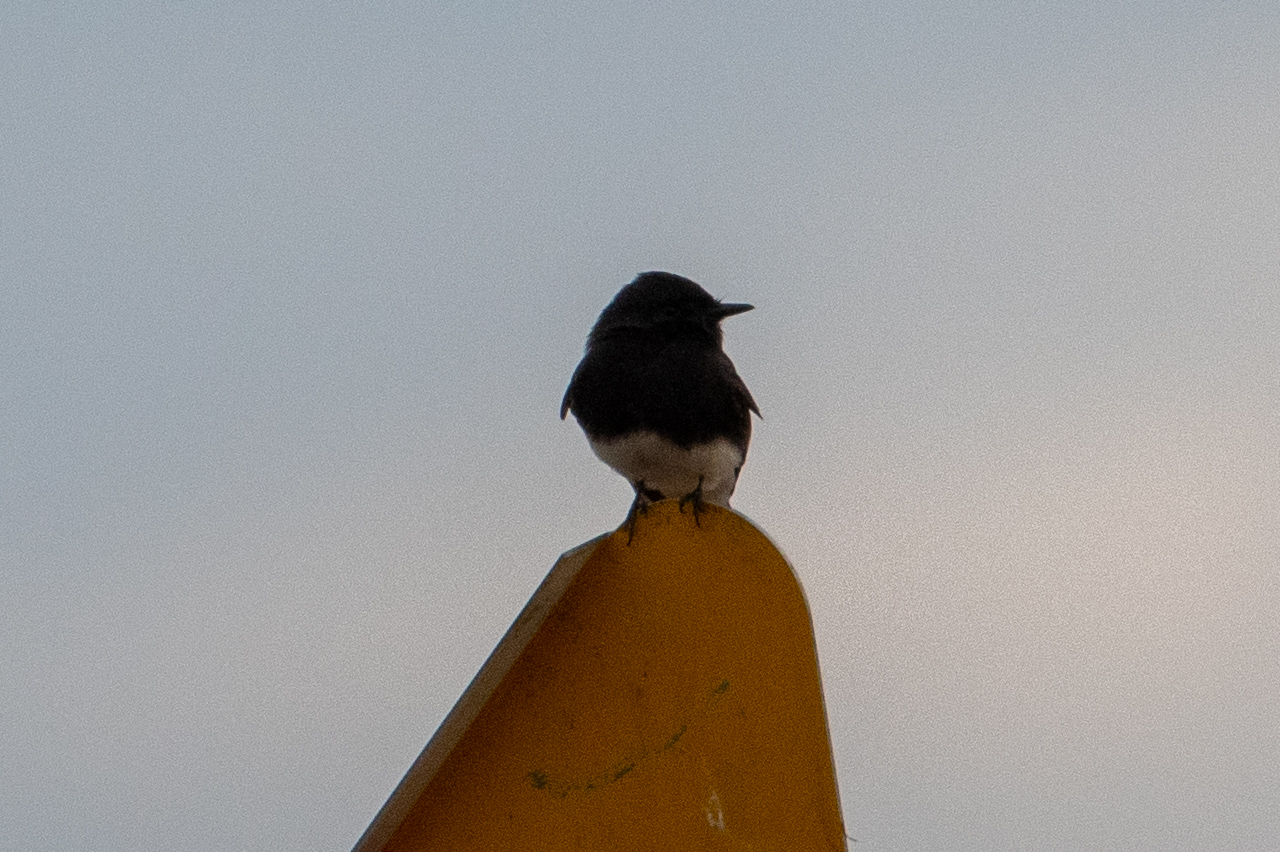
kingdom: Animalia
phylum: Chordata
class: Aves
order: Passeriformes
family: Tyrannidae
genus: Sayornis
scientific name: Sayornis nigricans
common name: Black phoebe
